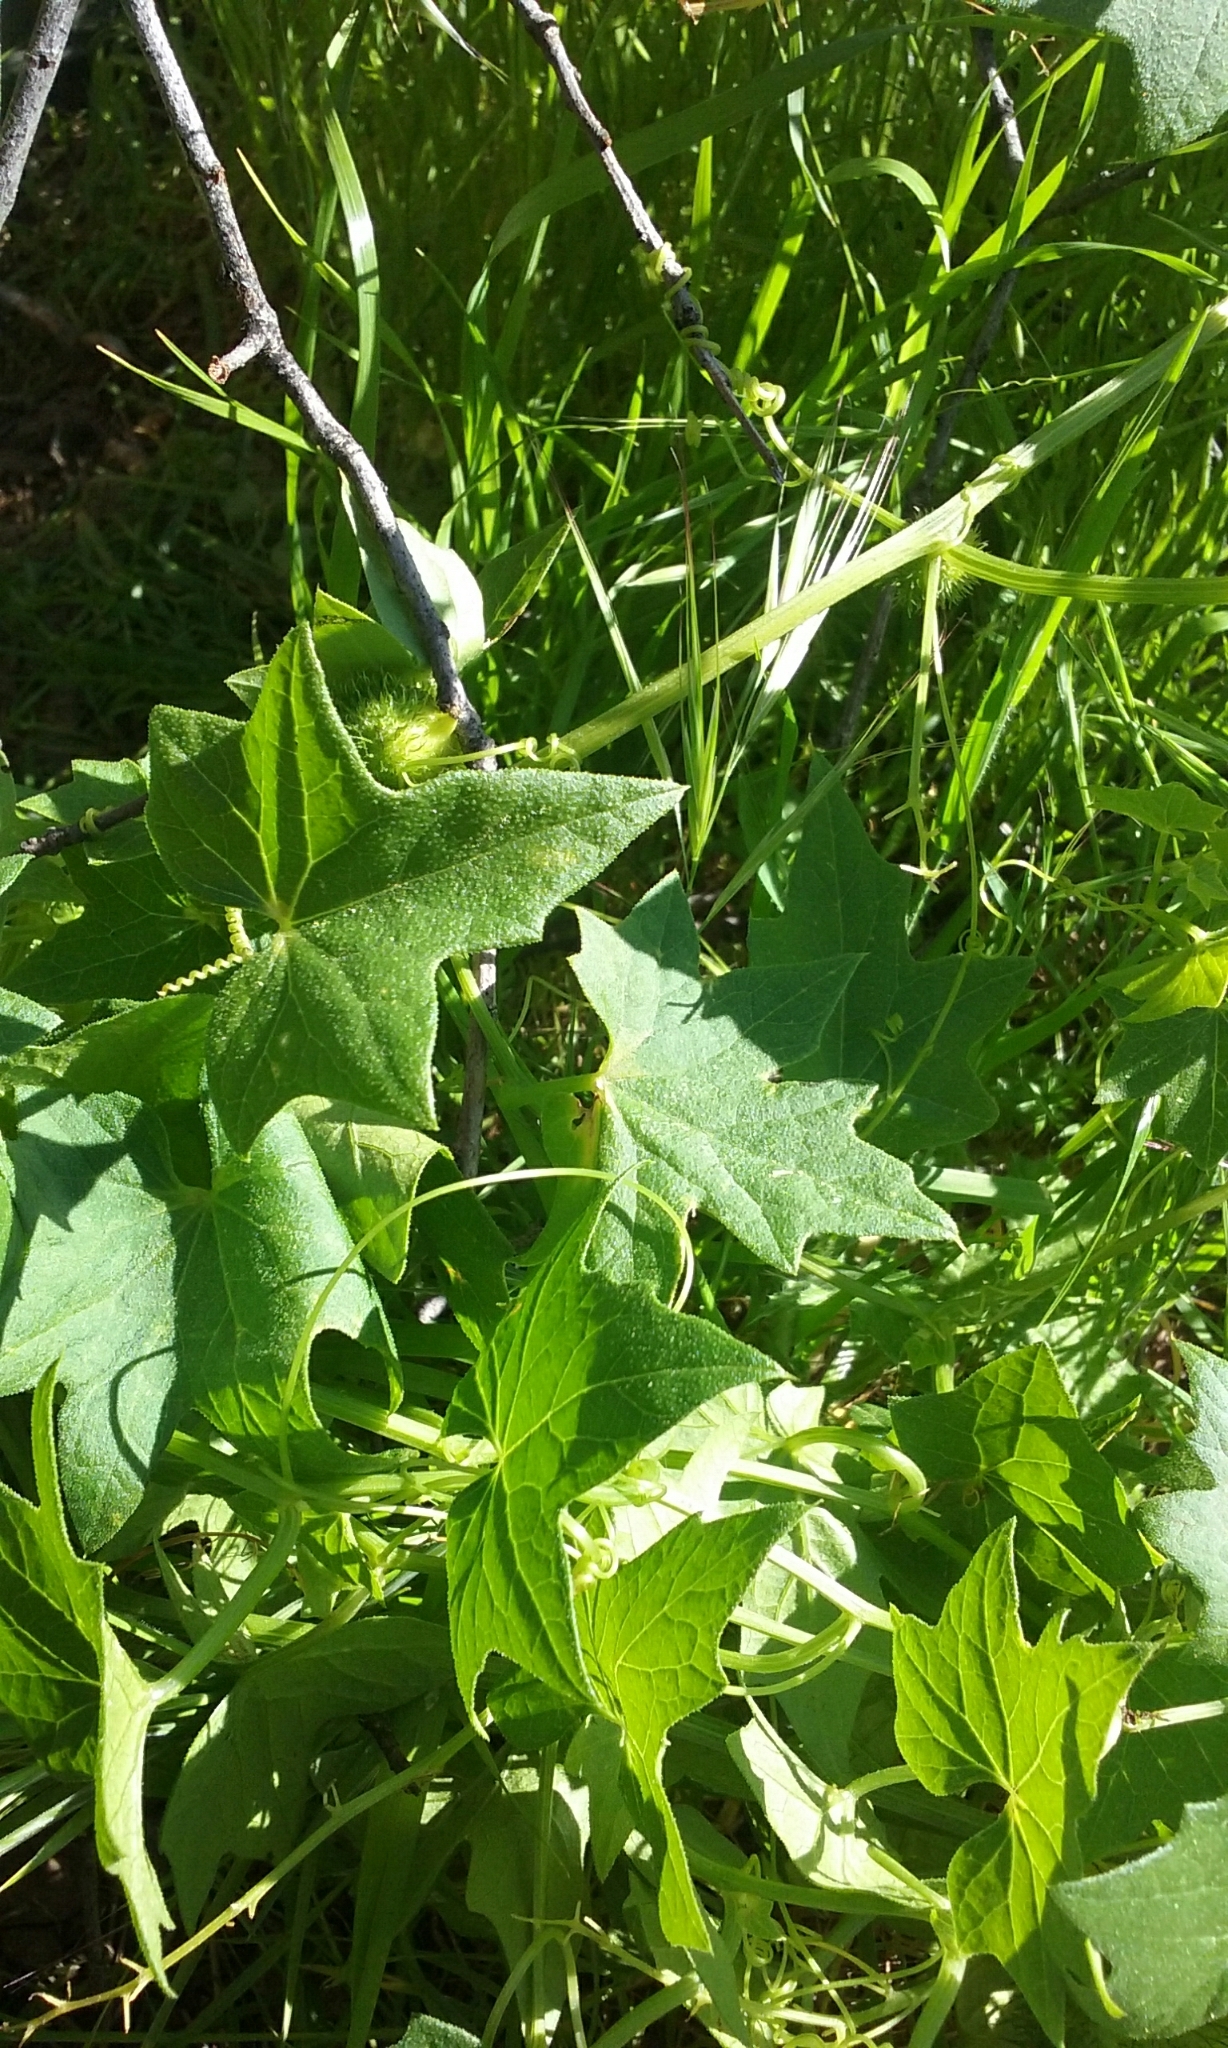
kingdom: Plantae
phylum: Tracheophyta
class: Magnoliopsida
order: Cucurbitales
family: Cucurbitaceae
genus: Marah
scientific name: Marah fabacea
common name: California manroot
